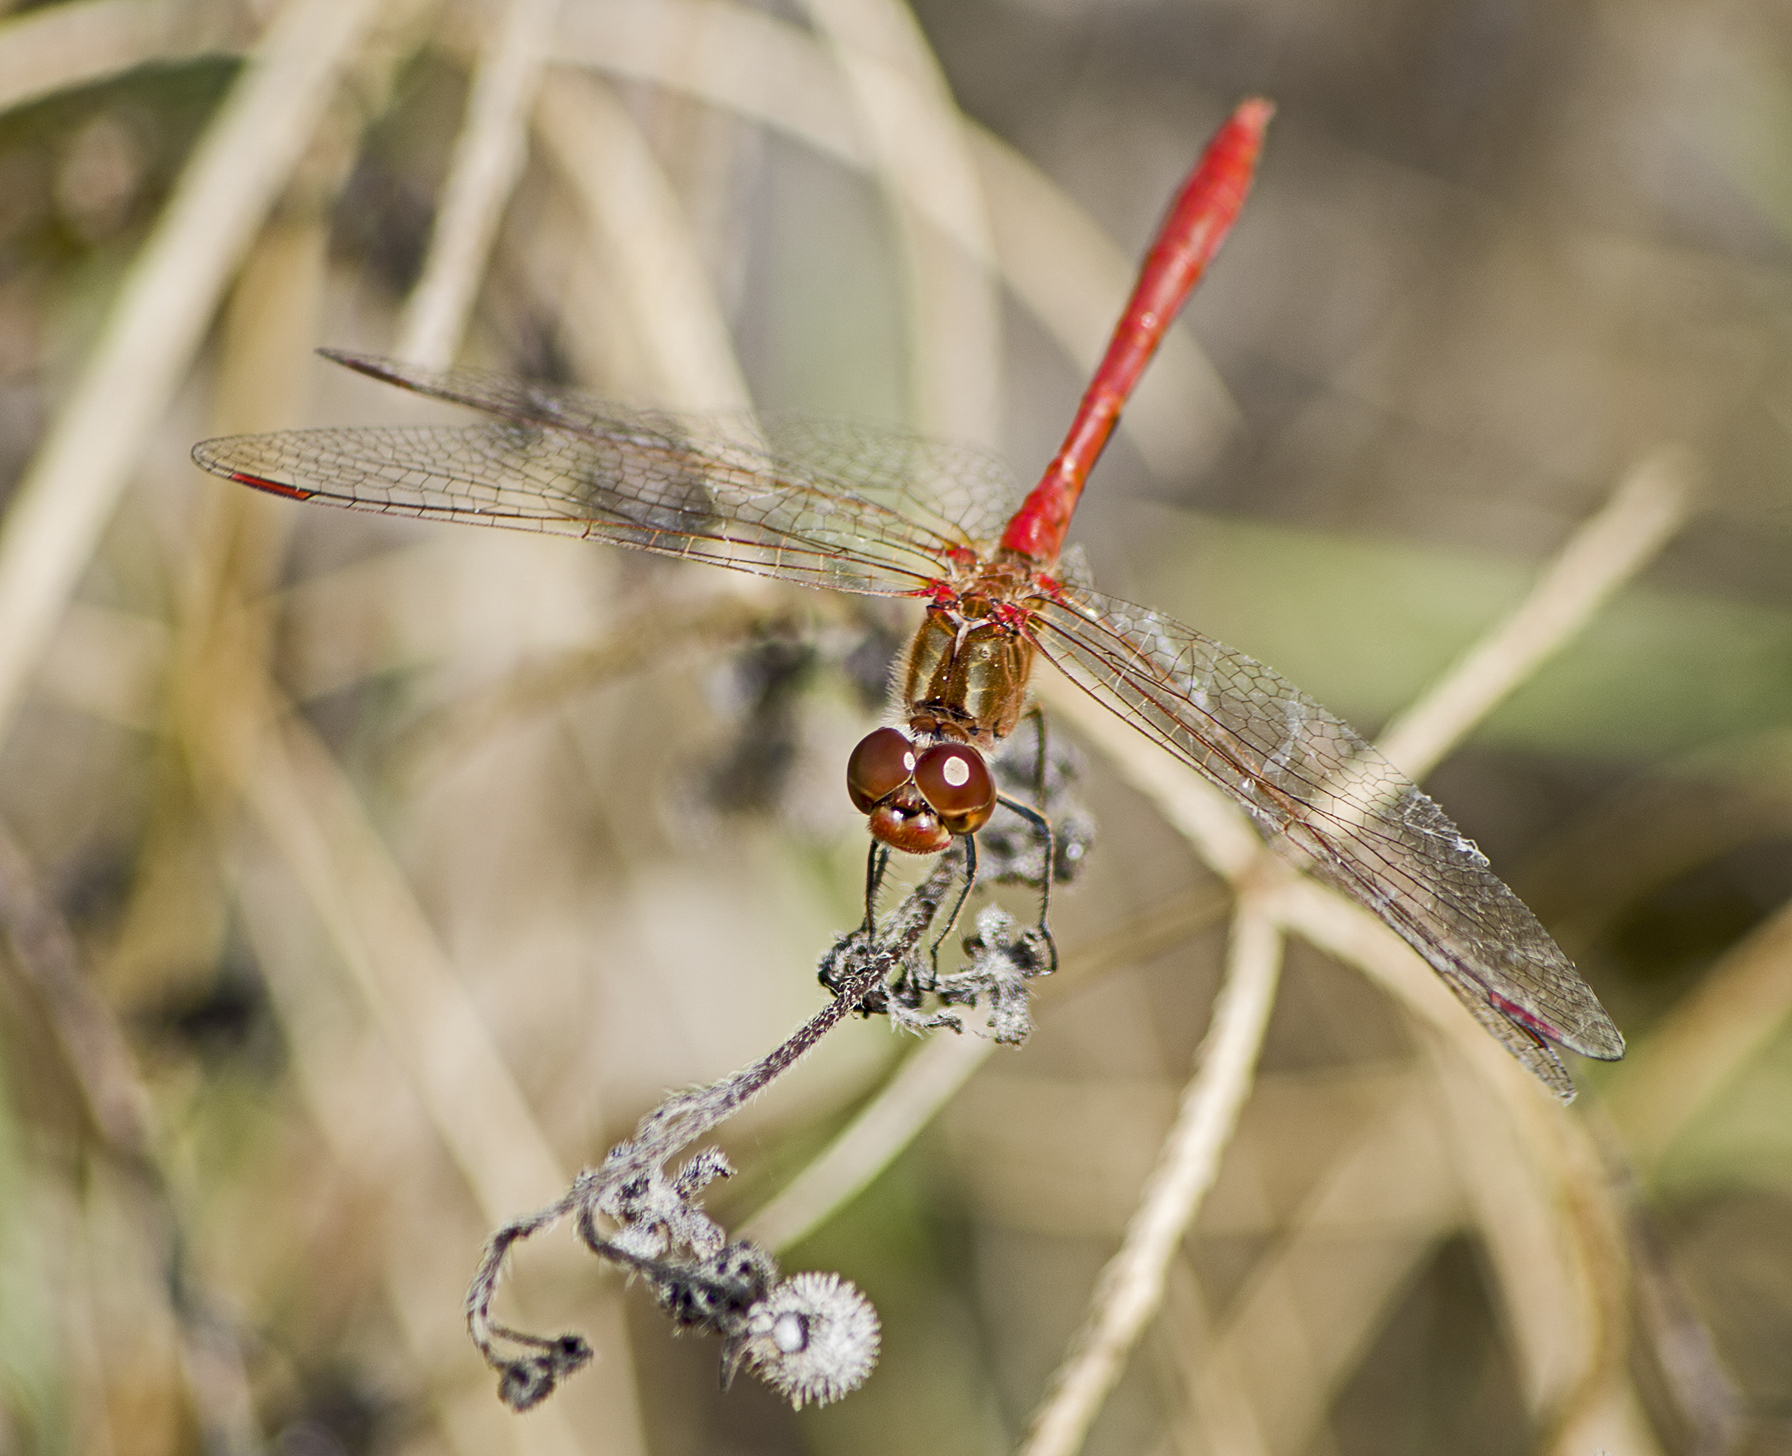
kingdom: Animalia
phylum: Arthropoda
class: Insecta
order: Odonata
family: Libellulidae
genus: Sympetrum
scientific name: Sympetrum meridionale
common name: Southern darter
